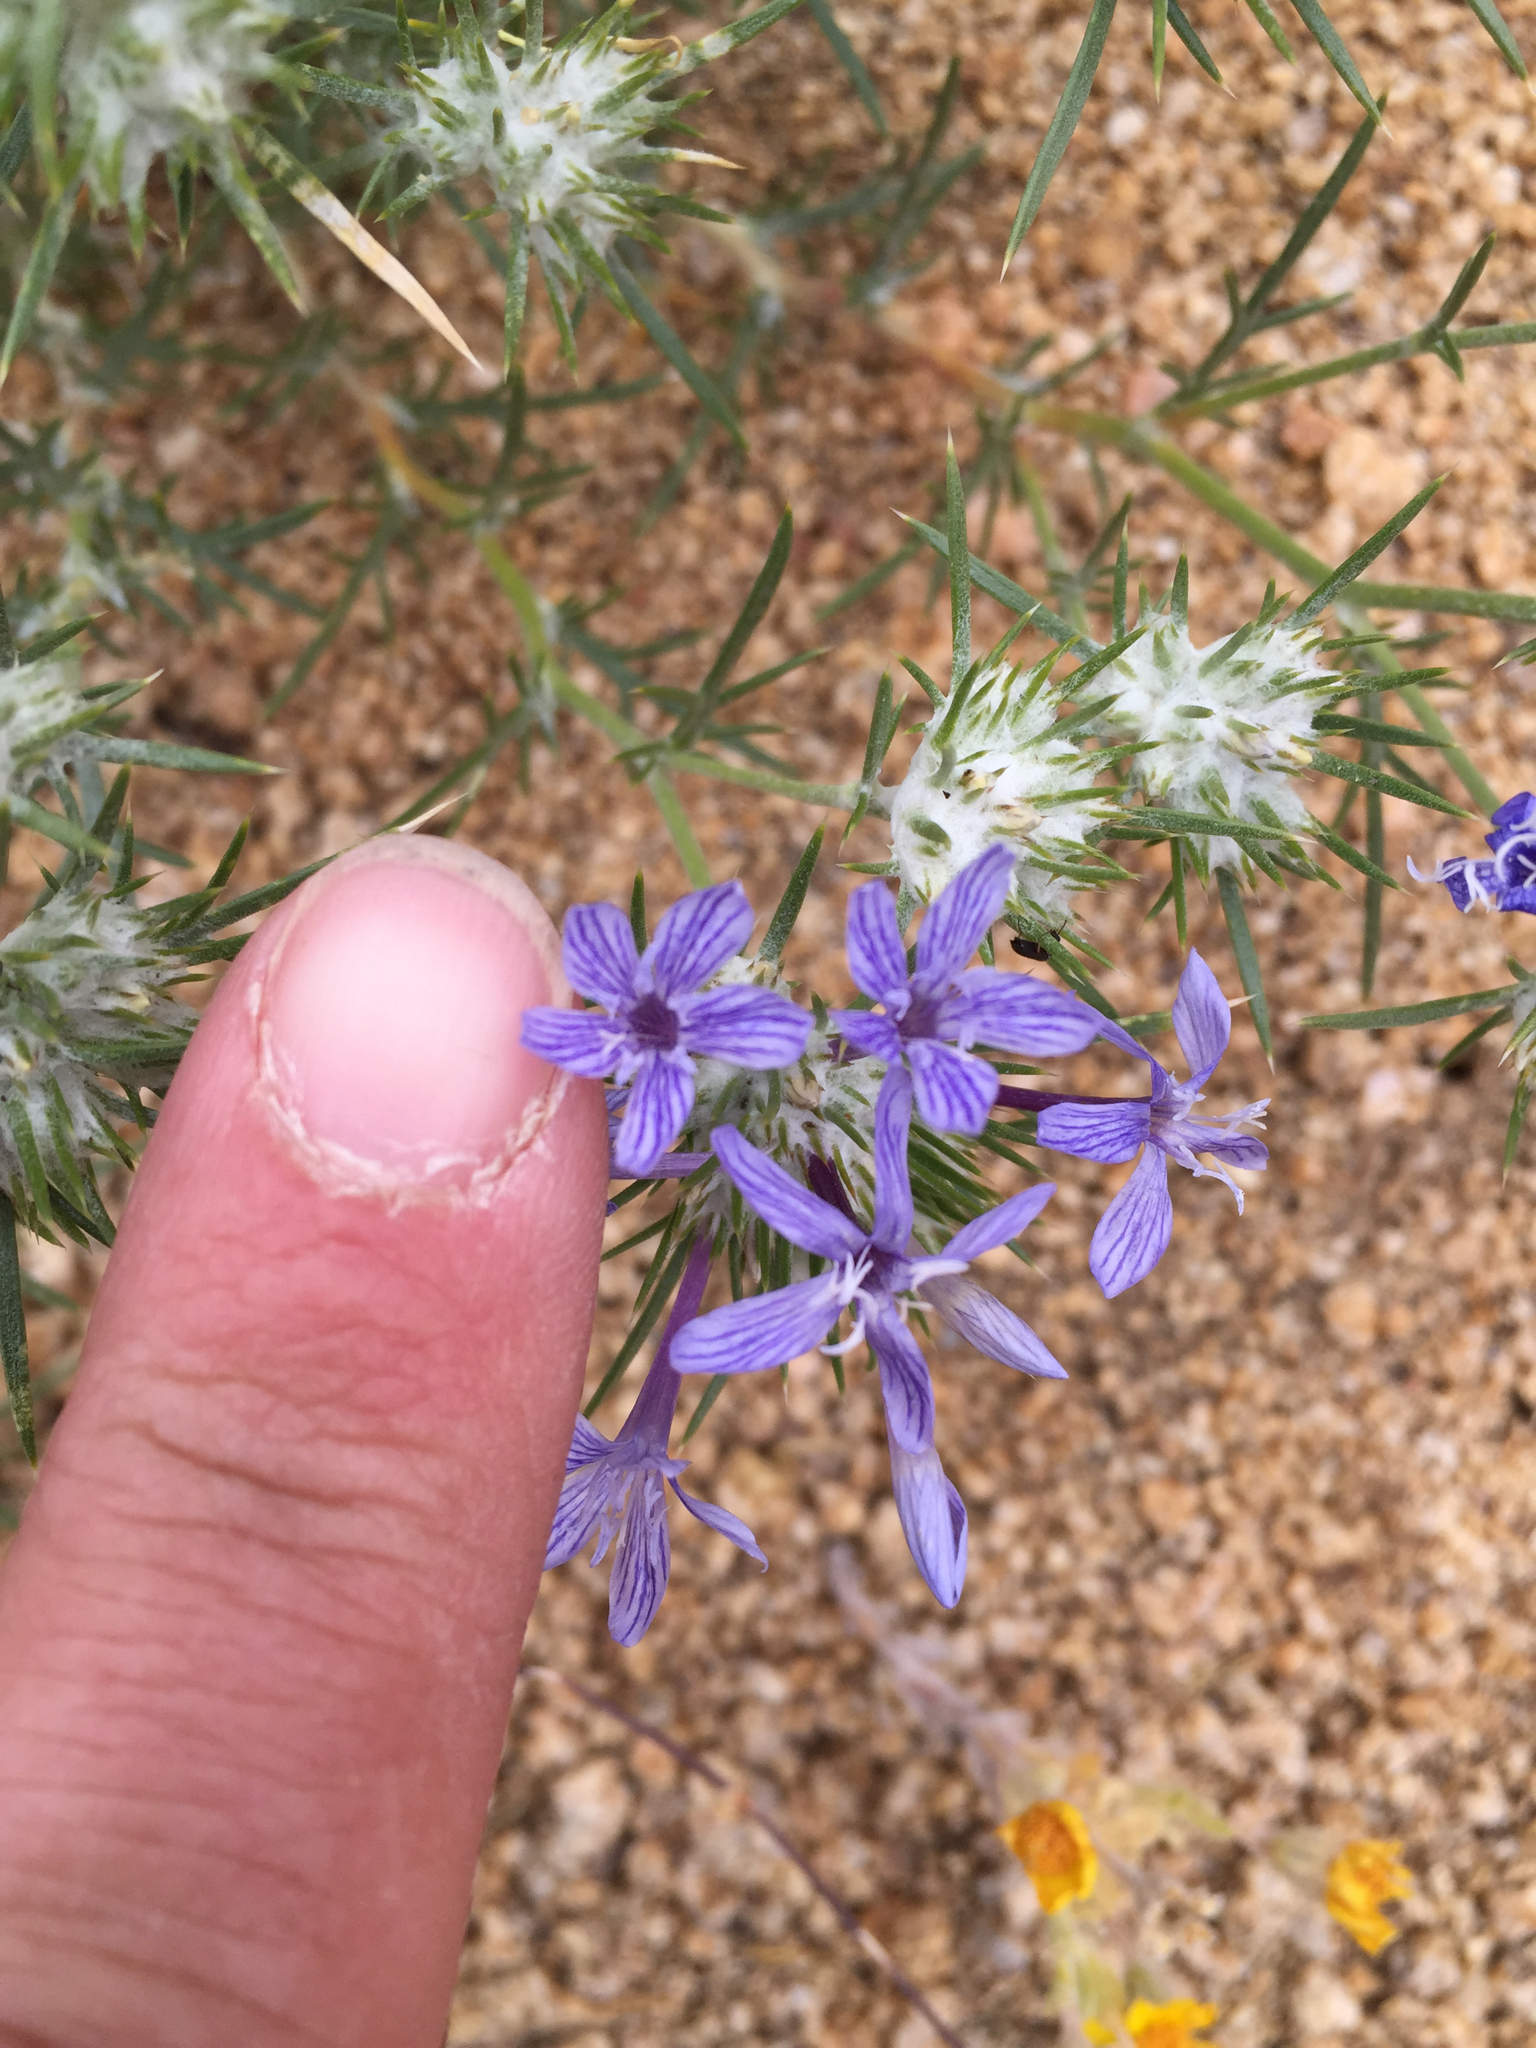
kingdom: Plantae
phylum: Tracheophyta
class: Magnoliopsida
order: Ericales
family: Polemoniaceae
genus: Eriastrum
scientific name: Eriastrum densifolium
